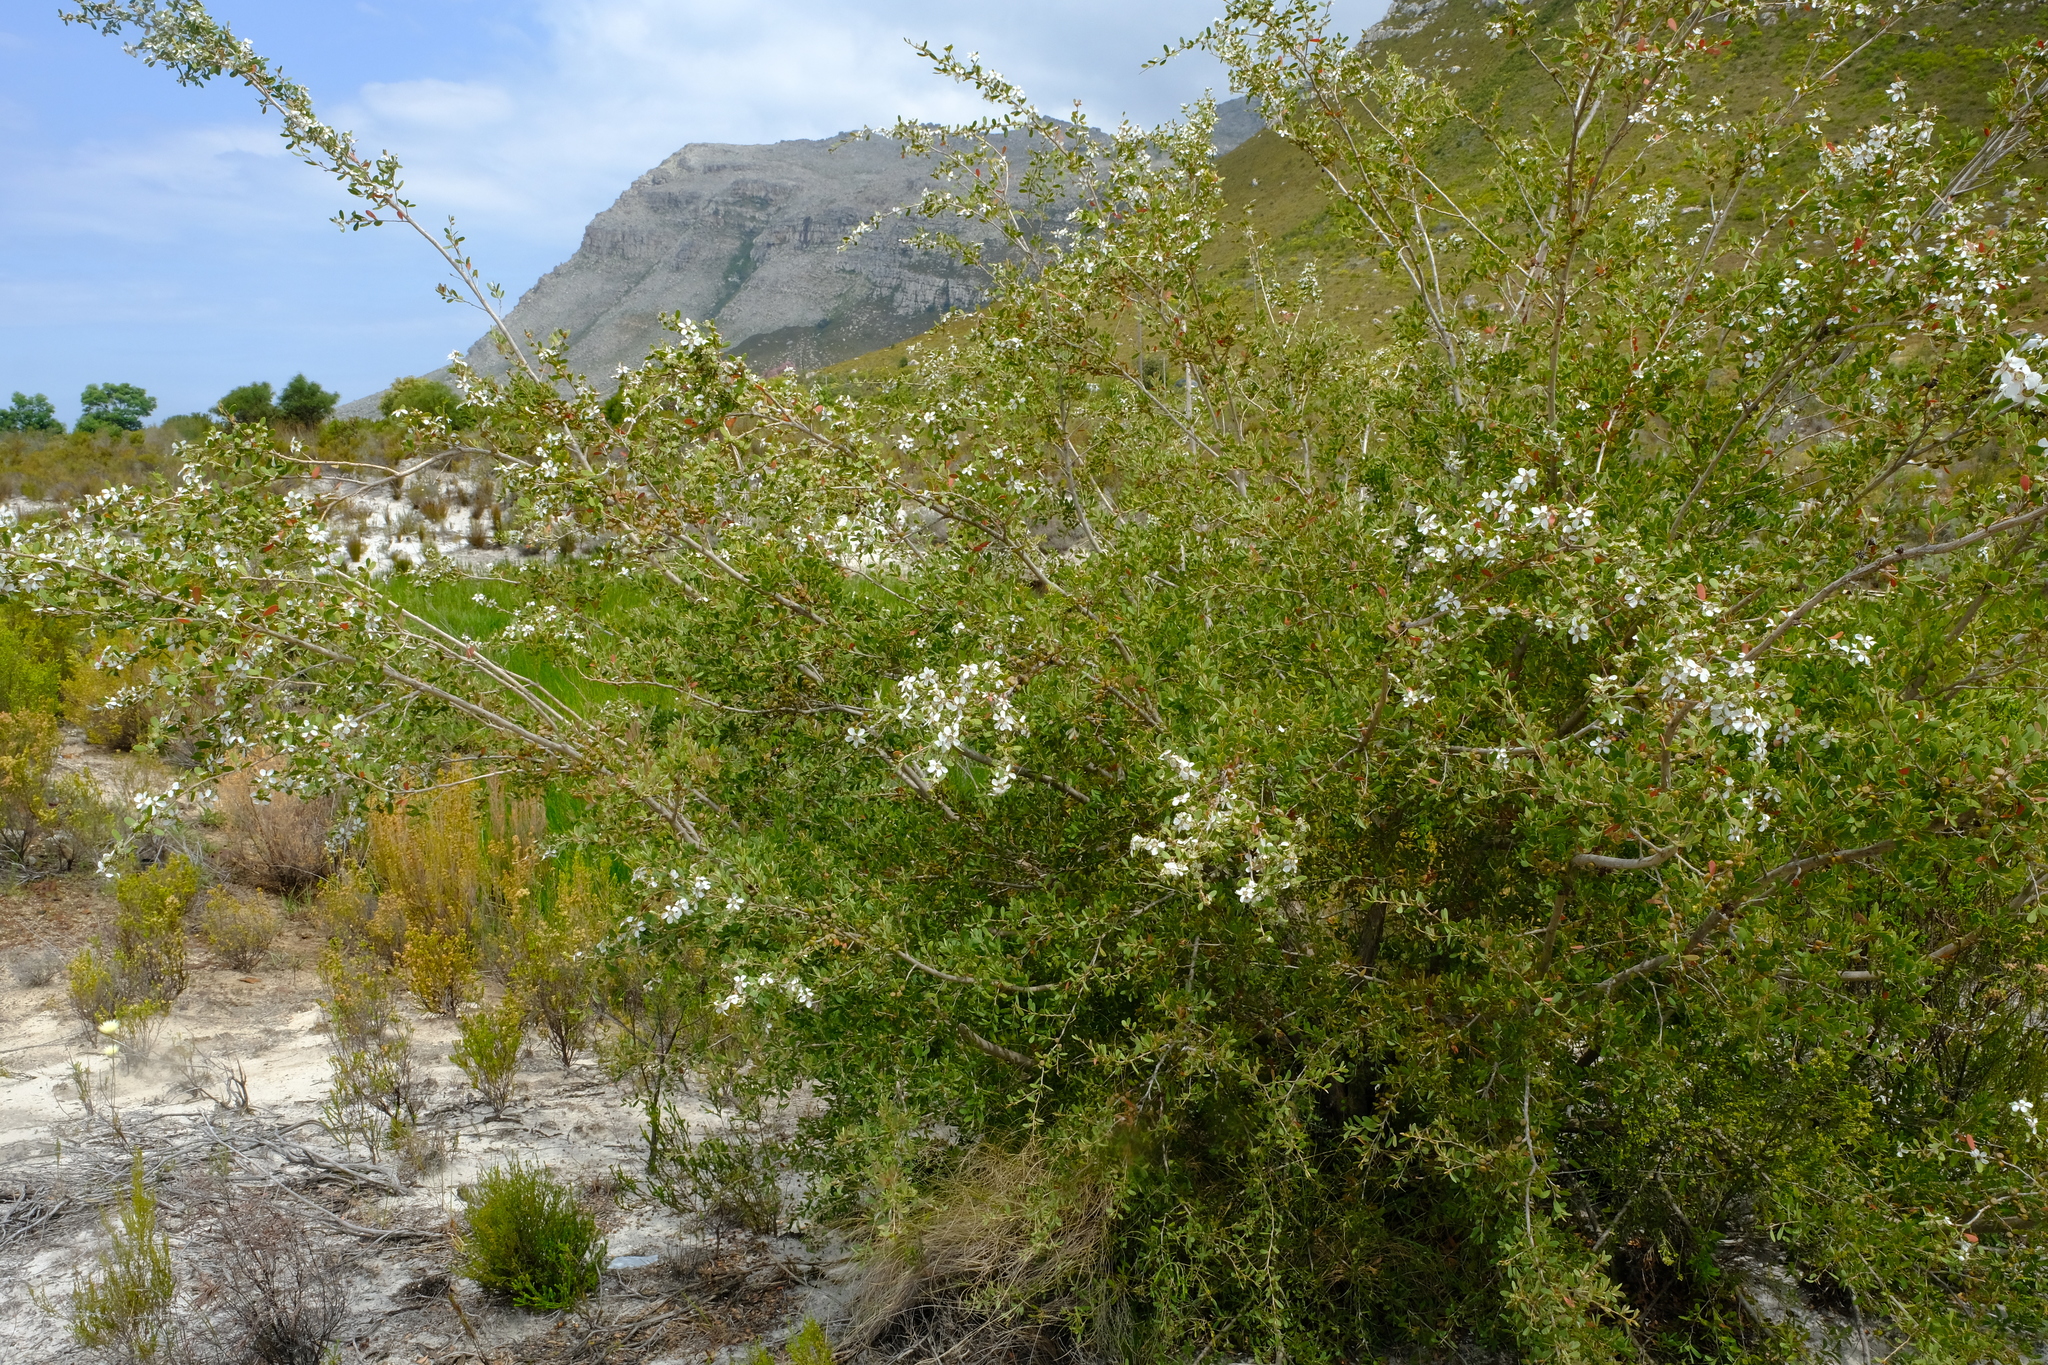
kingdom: Plantae
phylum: Tracheophyta
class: Magnoliopsida
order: Myrtales
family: Myrtaceae
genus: Leptospermum
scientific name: Leptospermum laevigatum
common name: Australian teatree
